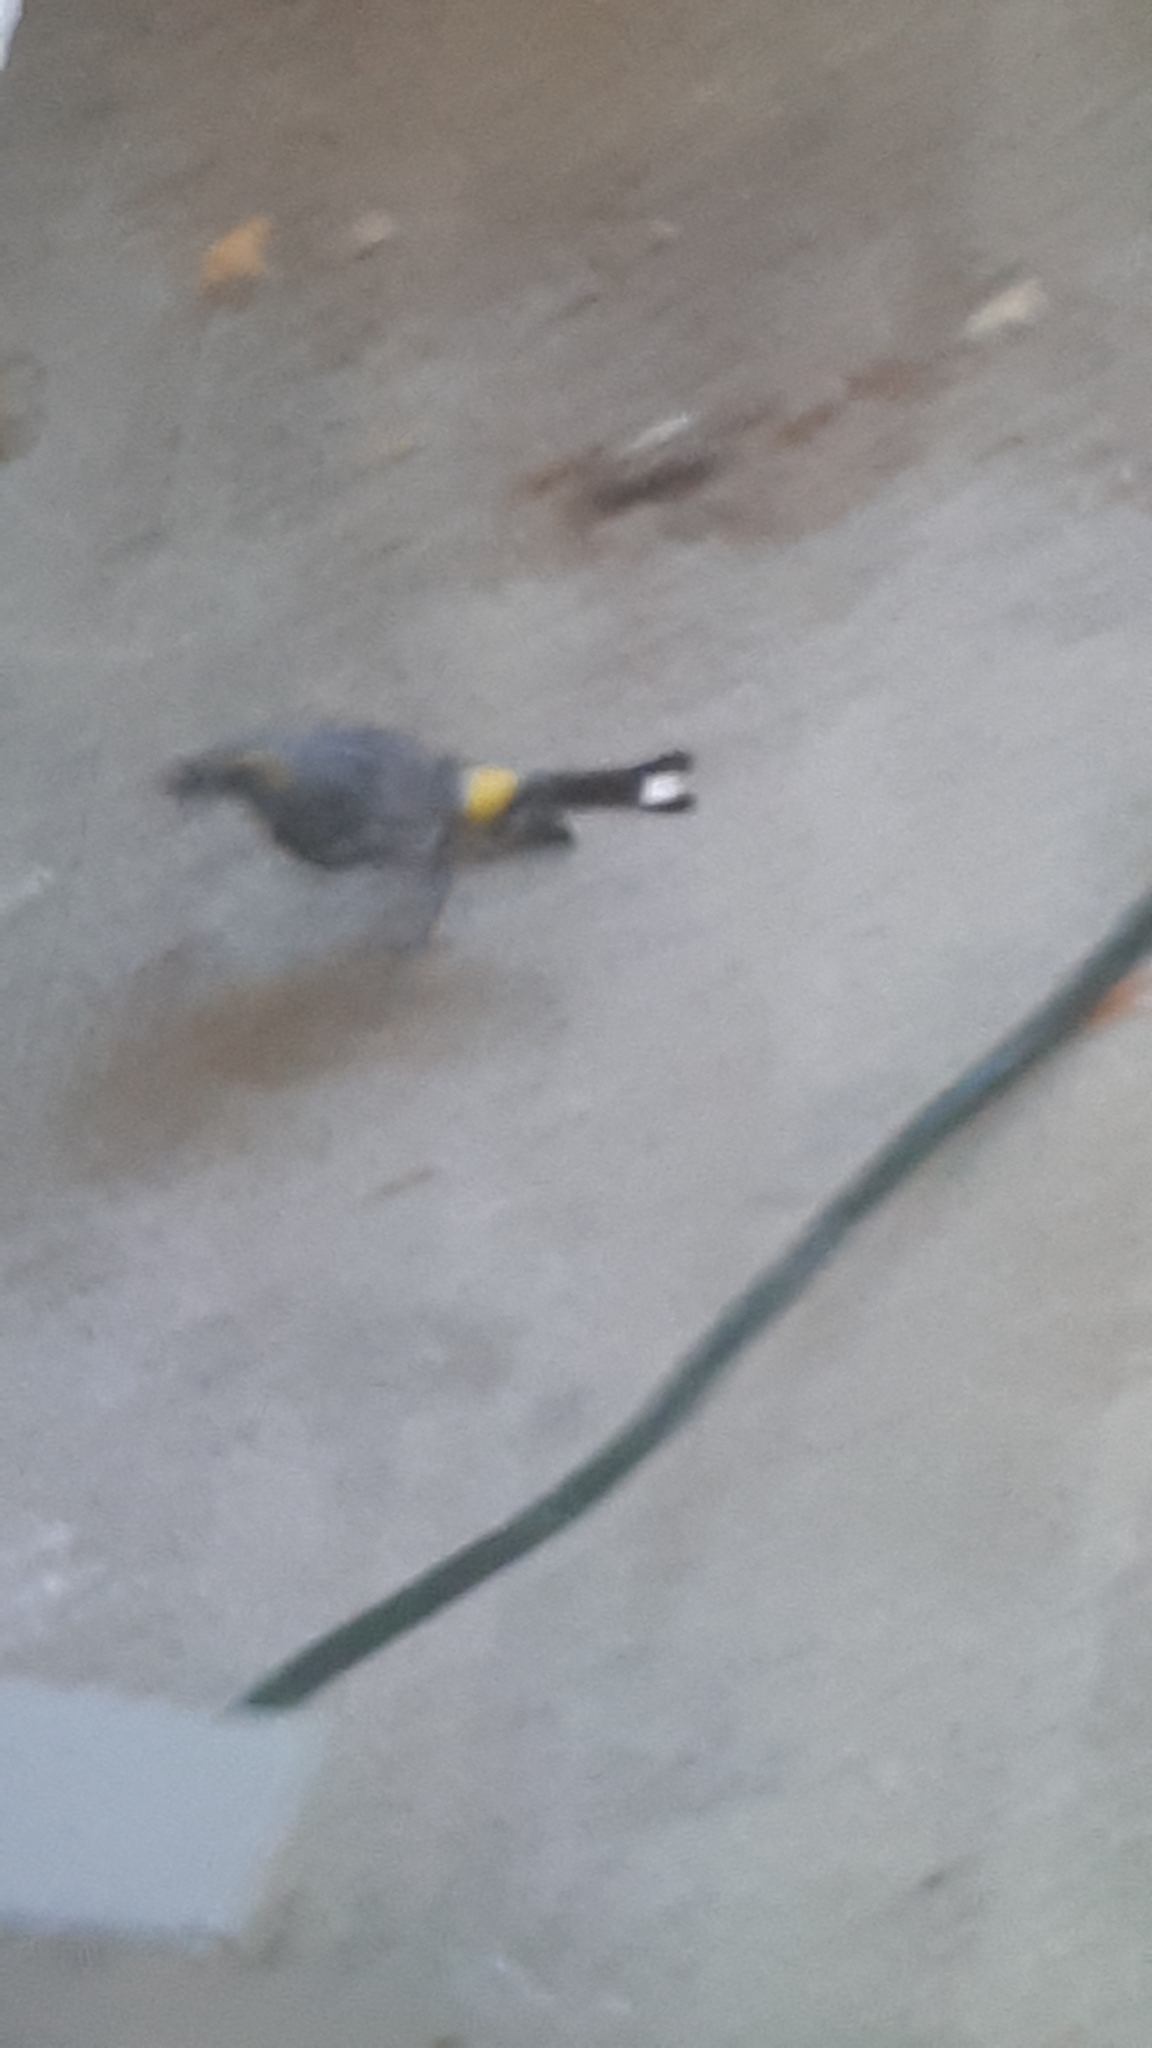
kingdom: Animalia
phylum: Chordata
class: Aves
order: Passeriformes
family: Parulidae
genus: Setophaga
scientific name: Setophaga coronata
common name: Myrtle warbler
